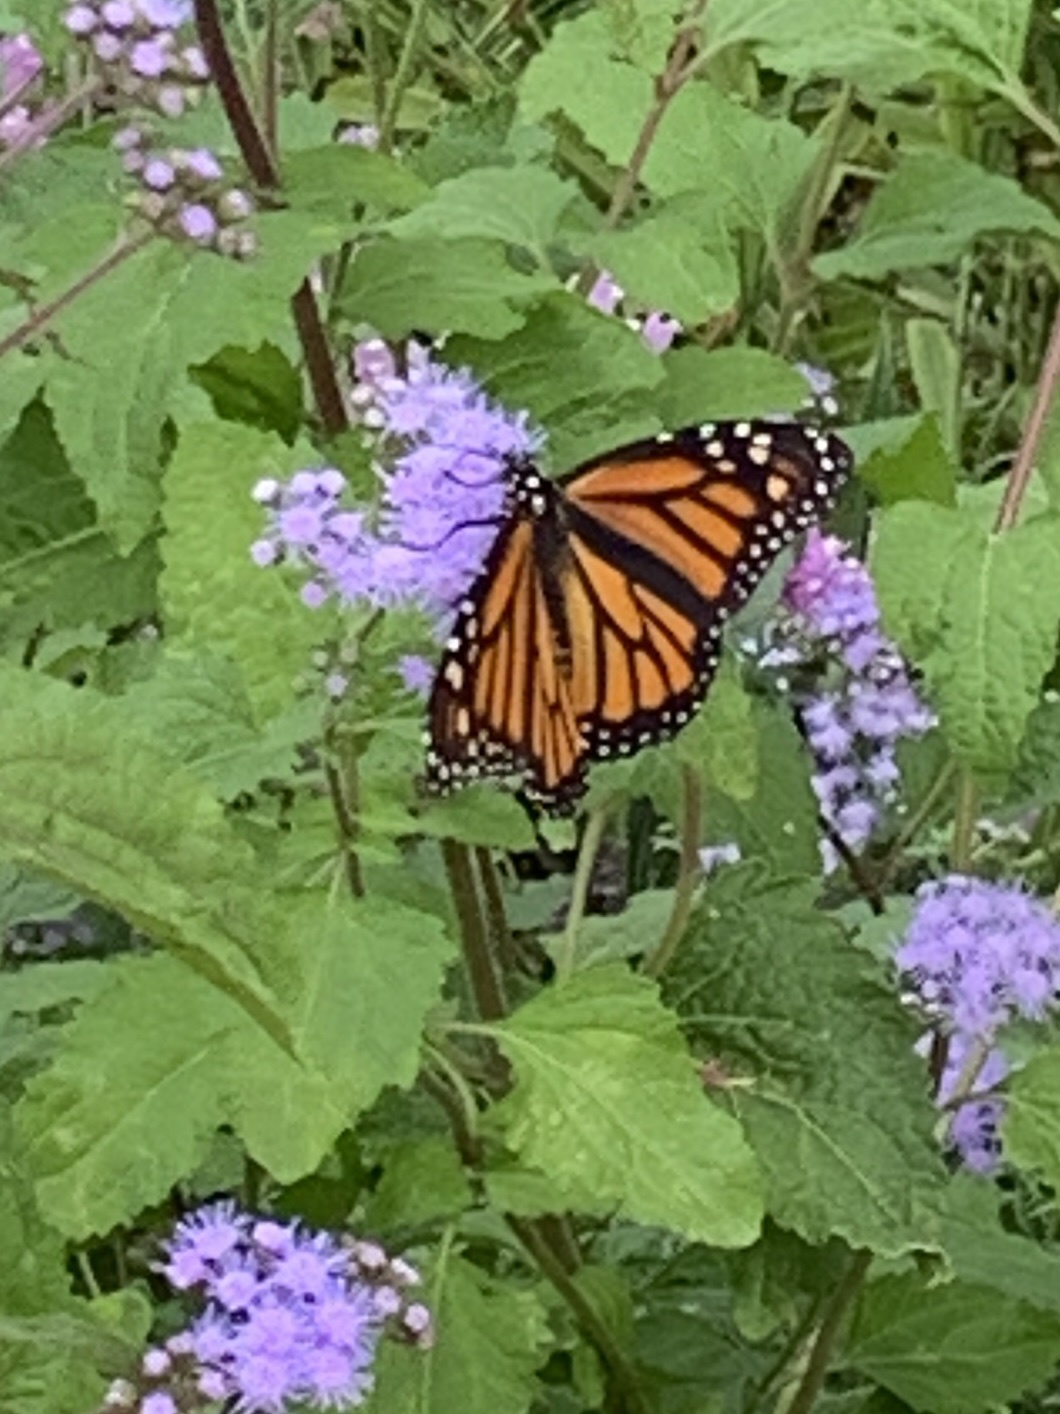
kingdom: Animalia
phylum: Arthropoda
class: Insecta
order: Lepidoptera
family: Nymphalidae
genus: Danaus
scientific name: Danaus plexippus
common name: Monarch
